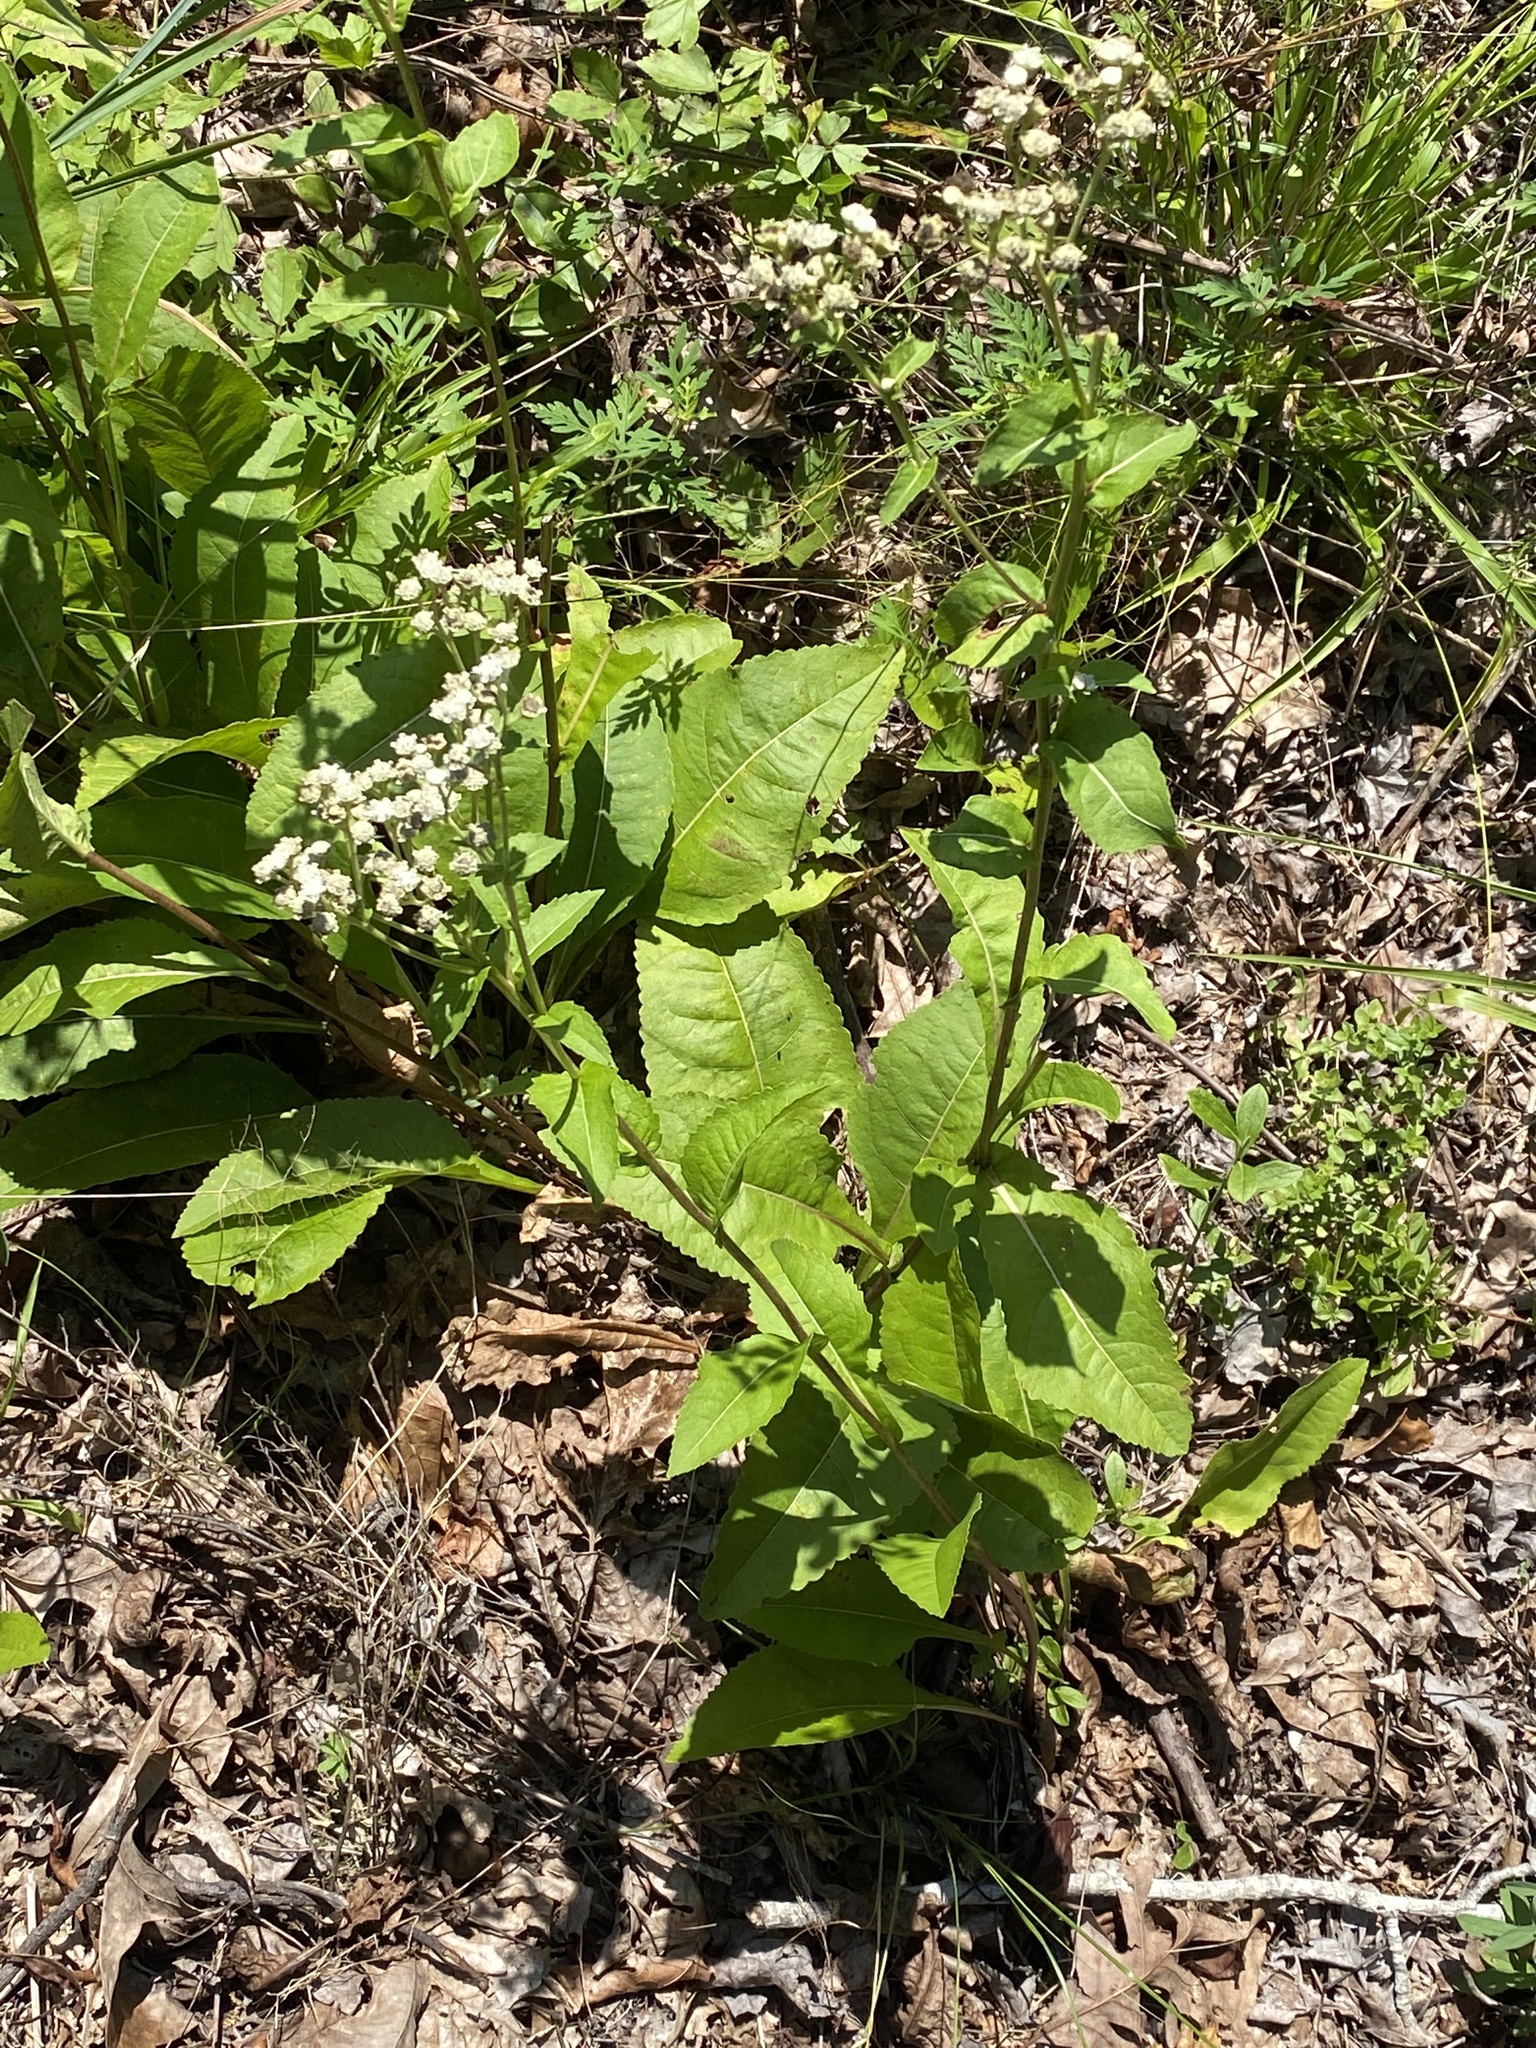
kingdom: Plantae
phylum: Tracheophyta
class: Magnoliopsida
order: Asterales
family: Asteraceae
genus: Parthenium
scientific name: Parthenium integrifolium
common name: American feverfew
